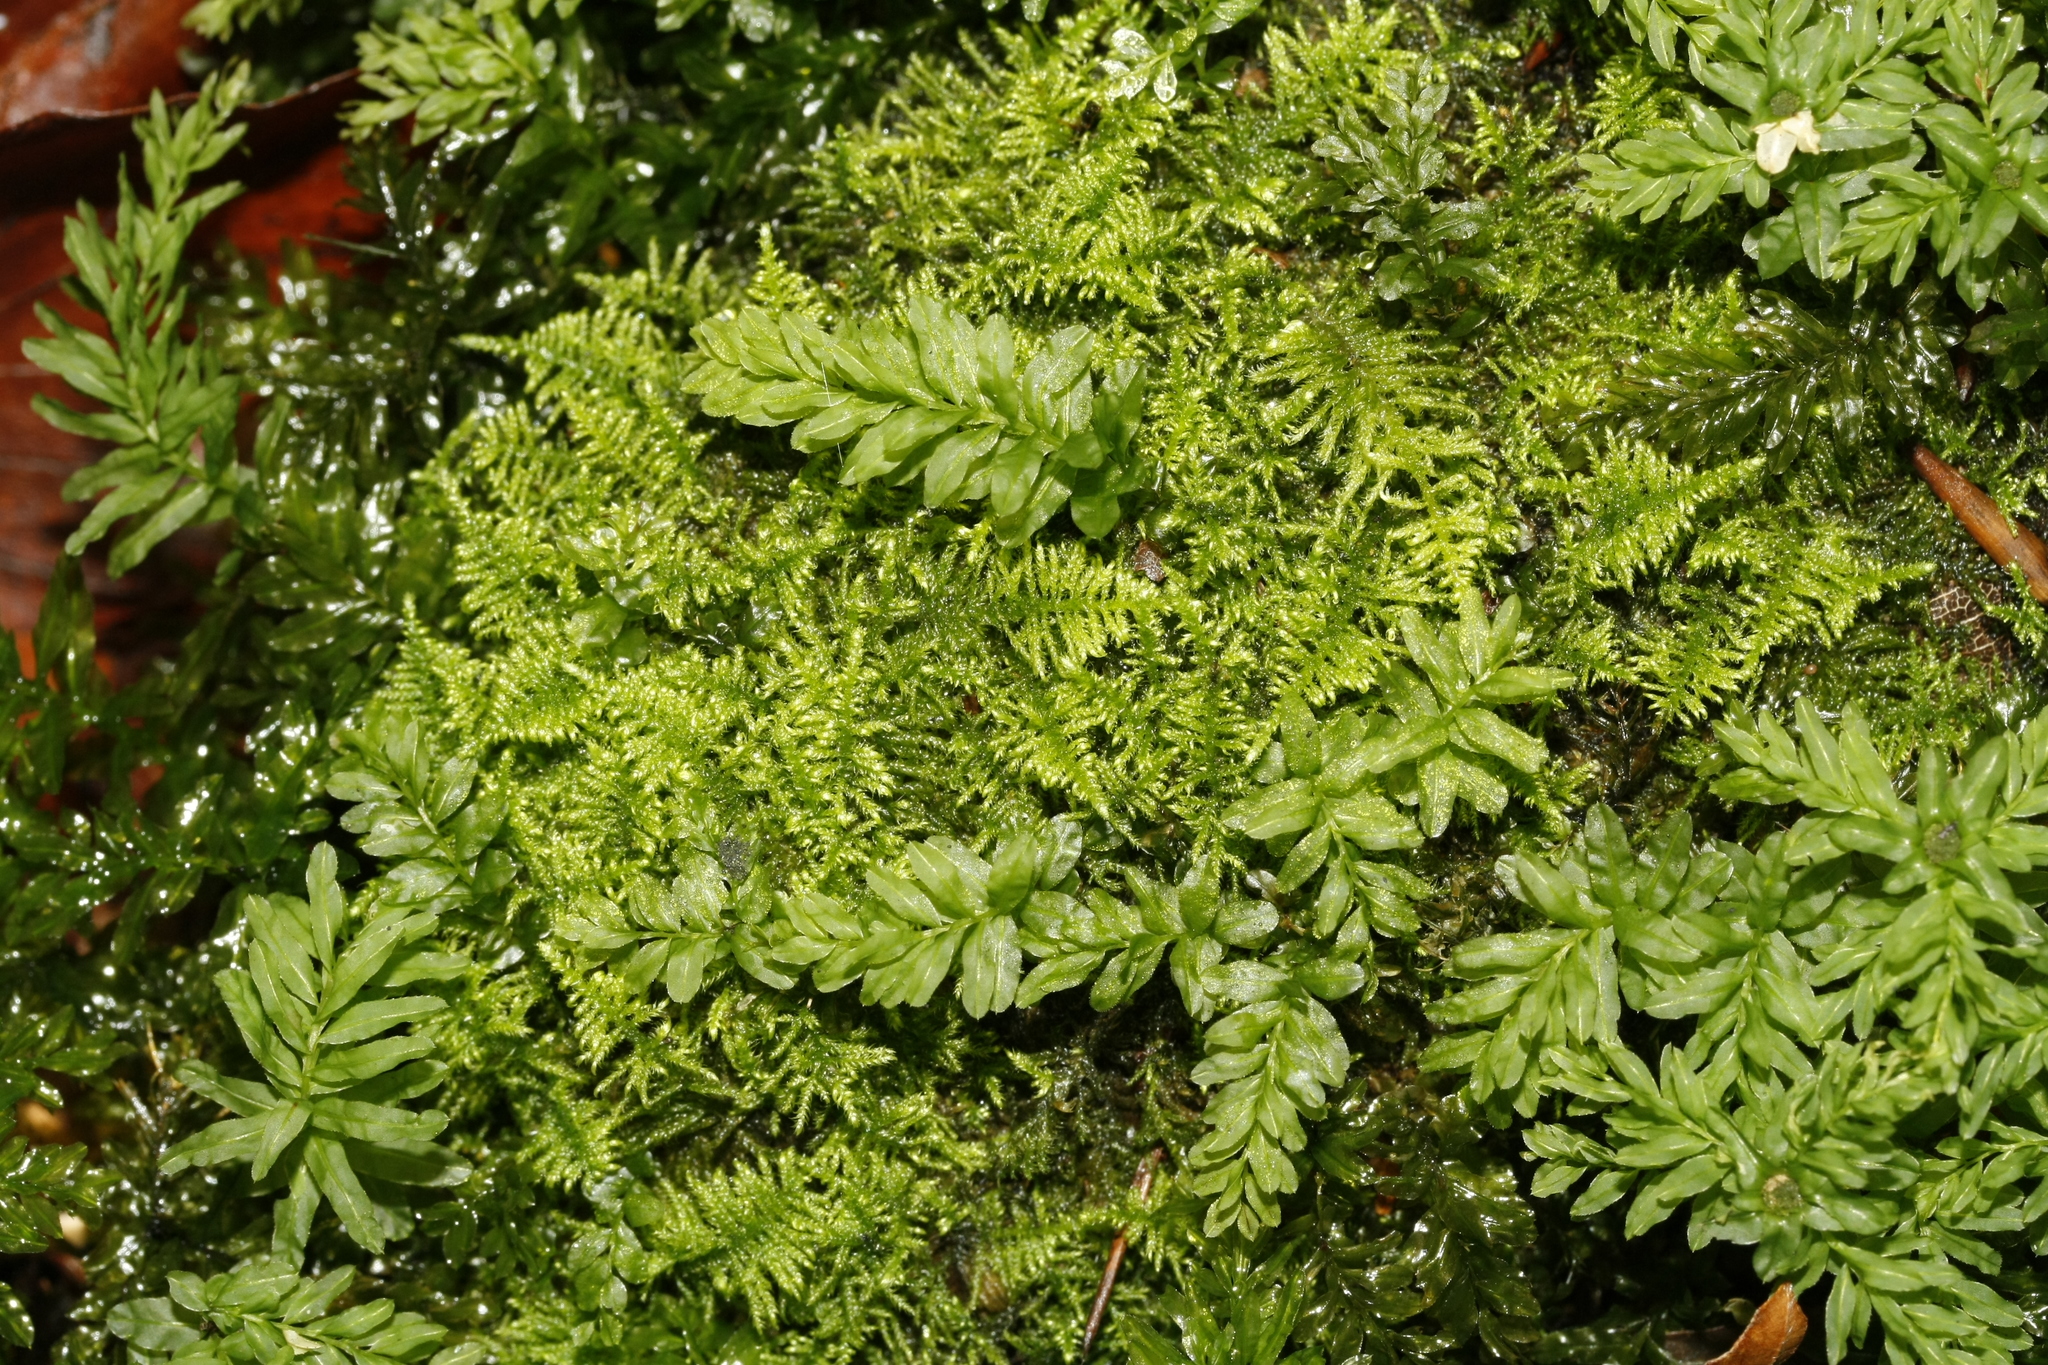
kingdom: Plantae
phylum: Bryophyta
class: Bryopsida
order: Hypnales
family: Myuriaceae
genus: Ctenidium
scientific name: Ctenidium molluscum
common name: Chalk comb-moss
